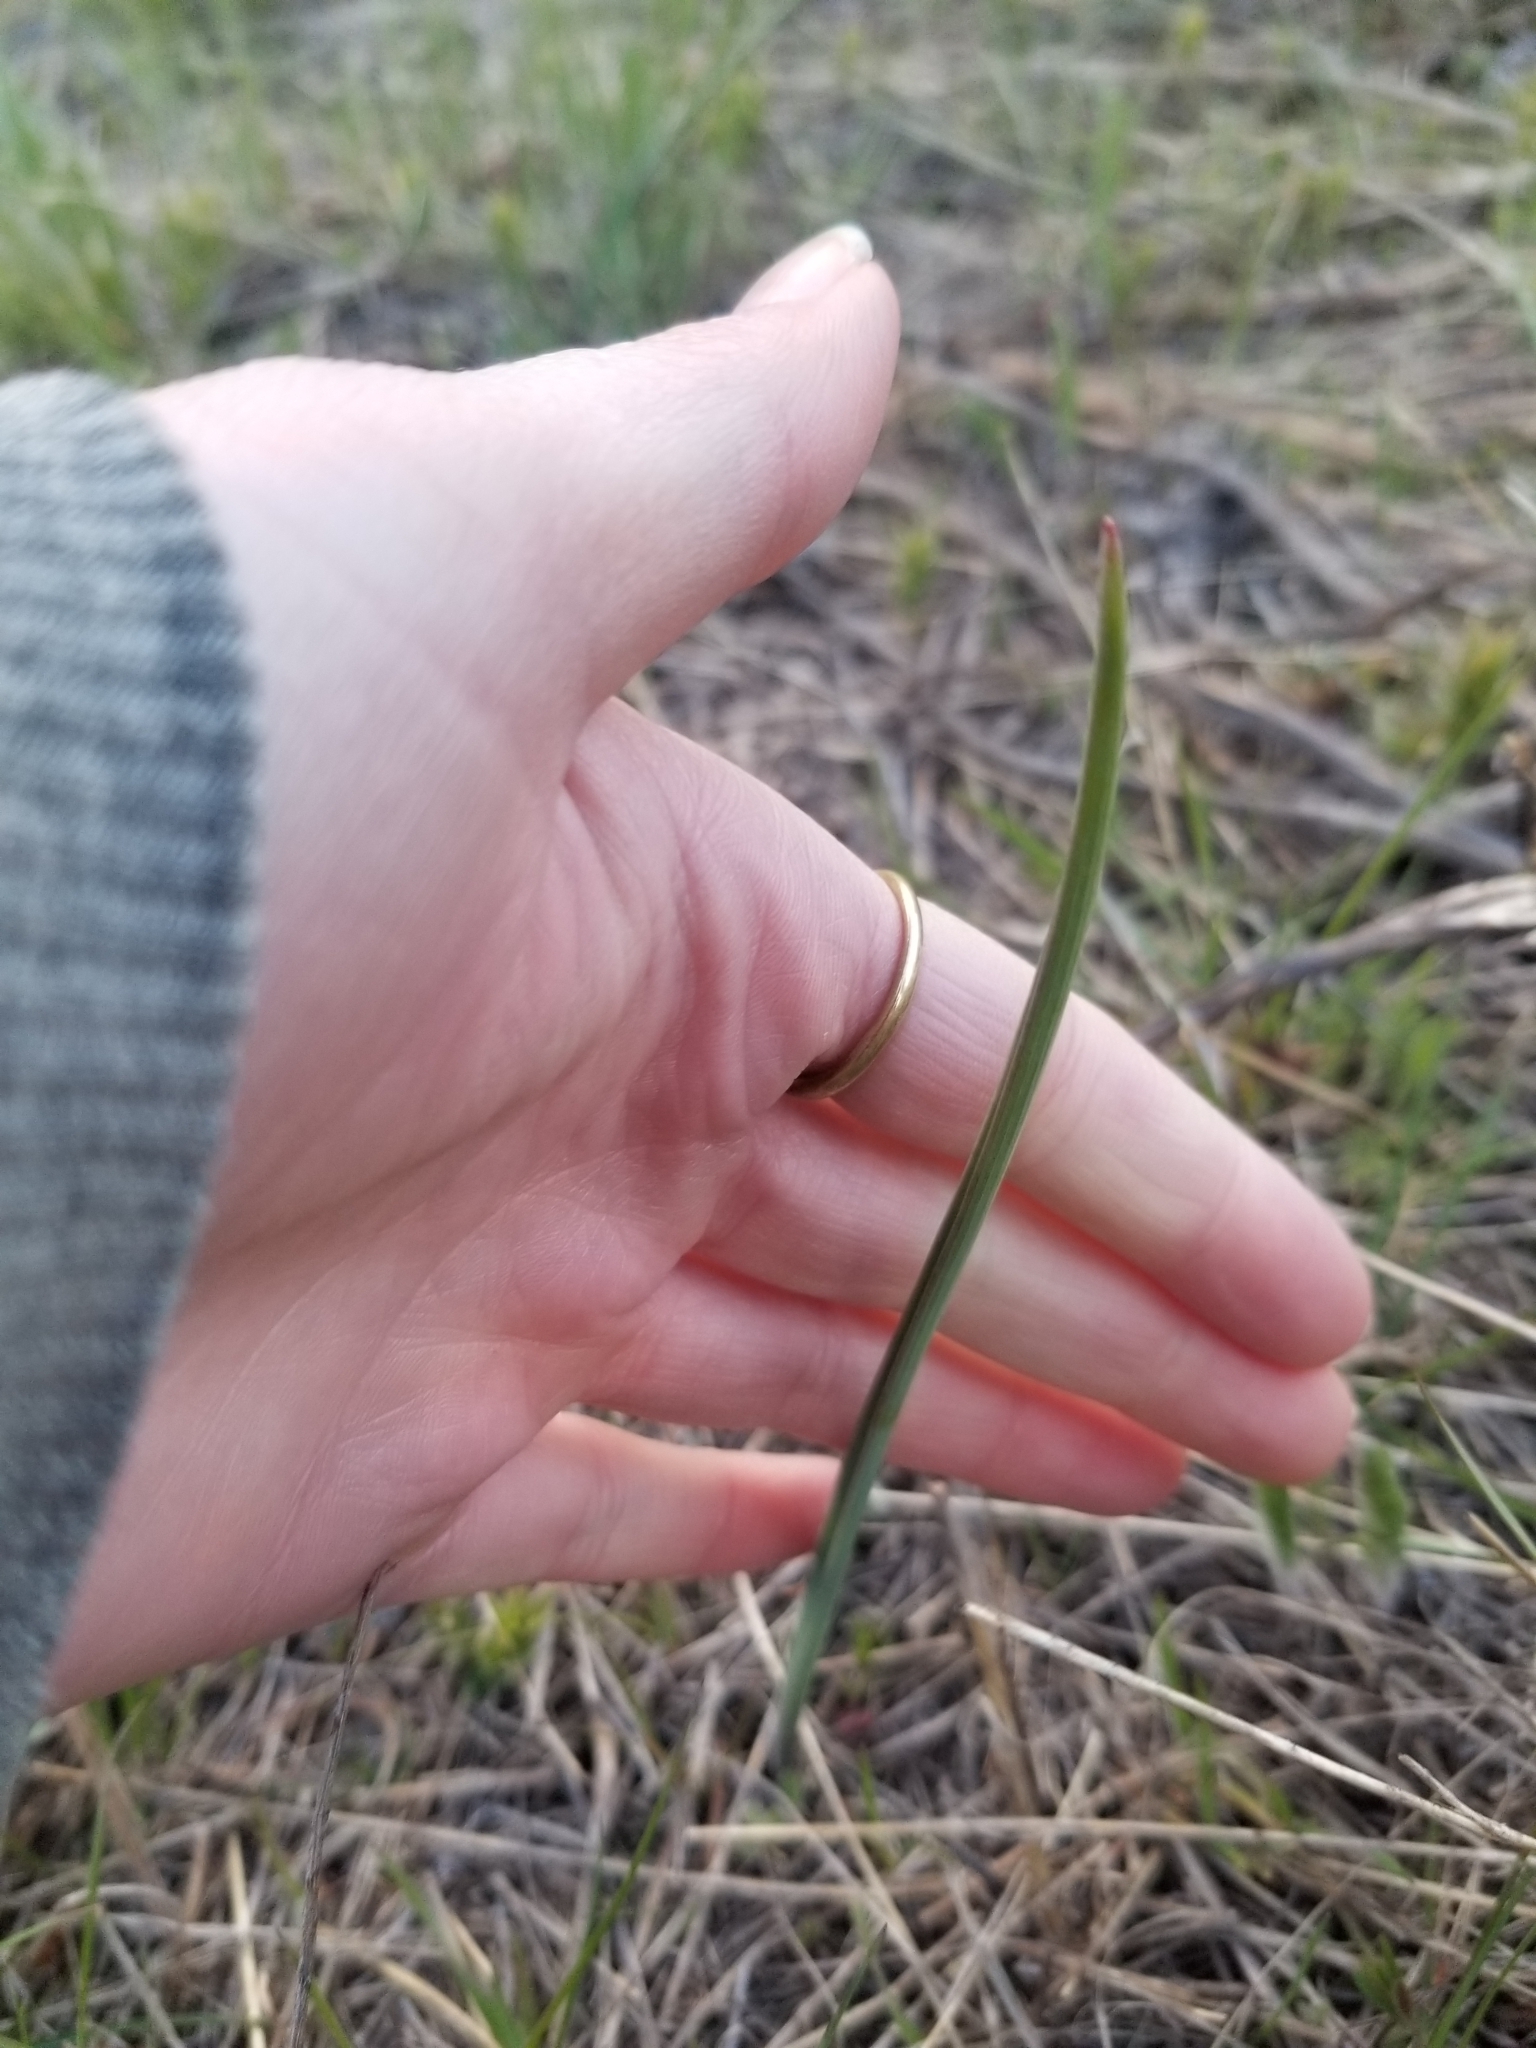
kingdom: Plantae
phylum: Tracheophyta
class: Liliopsida
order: Liliales
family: Liliaceae
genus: Calochortus
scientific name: Calochortus macrocarpus
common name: Green-band mariposa lily
